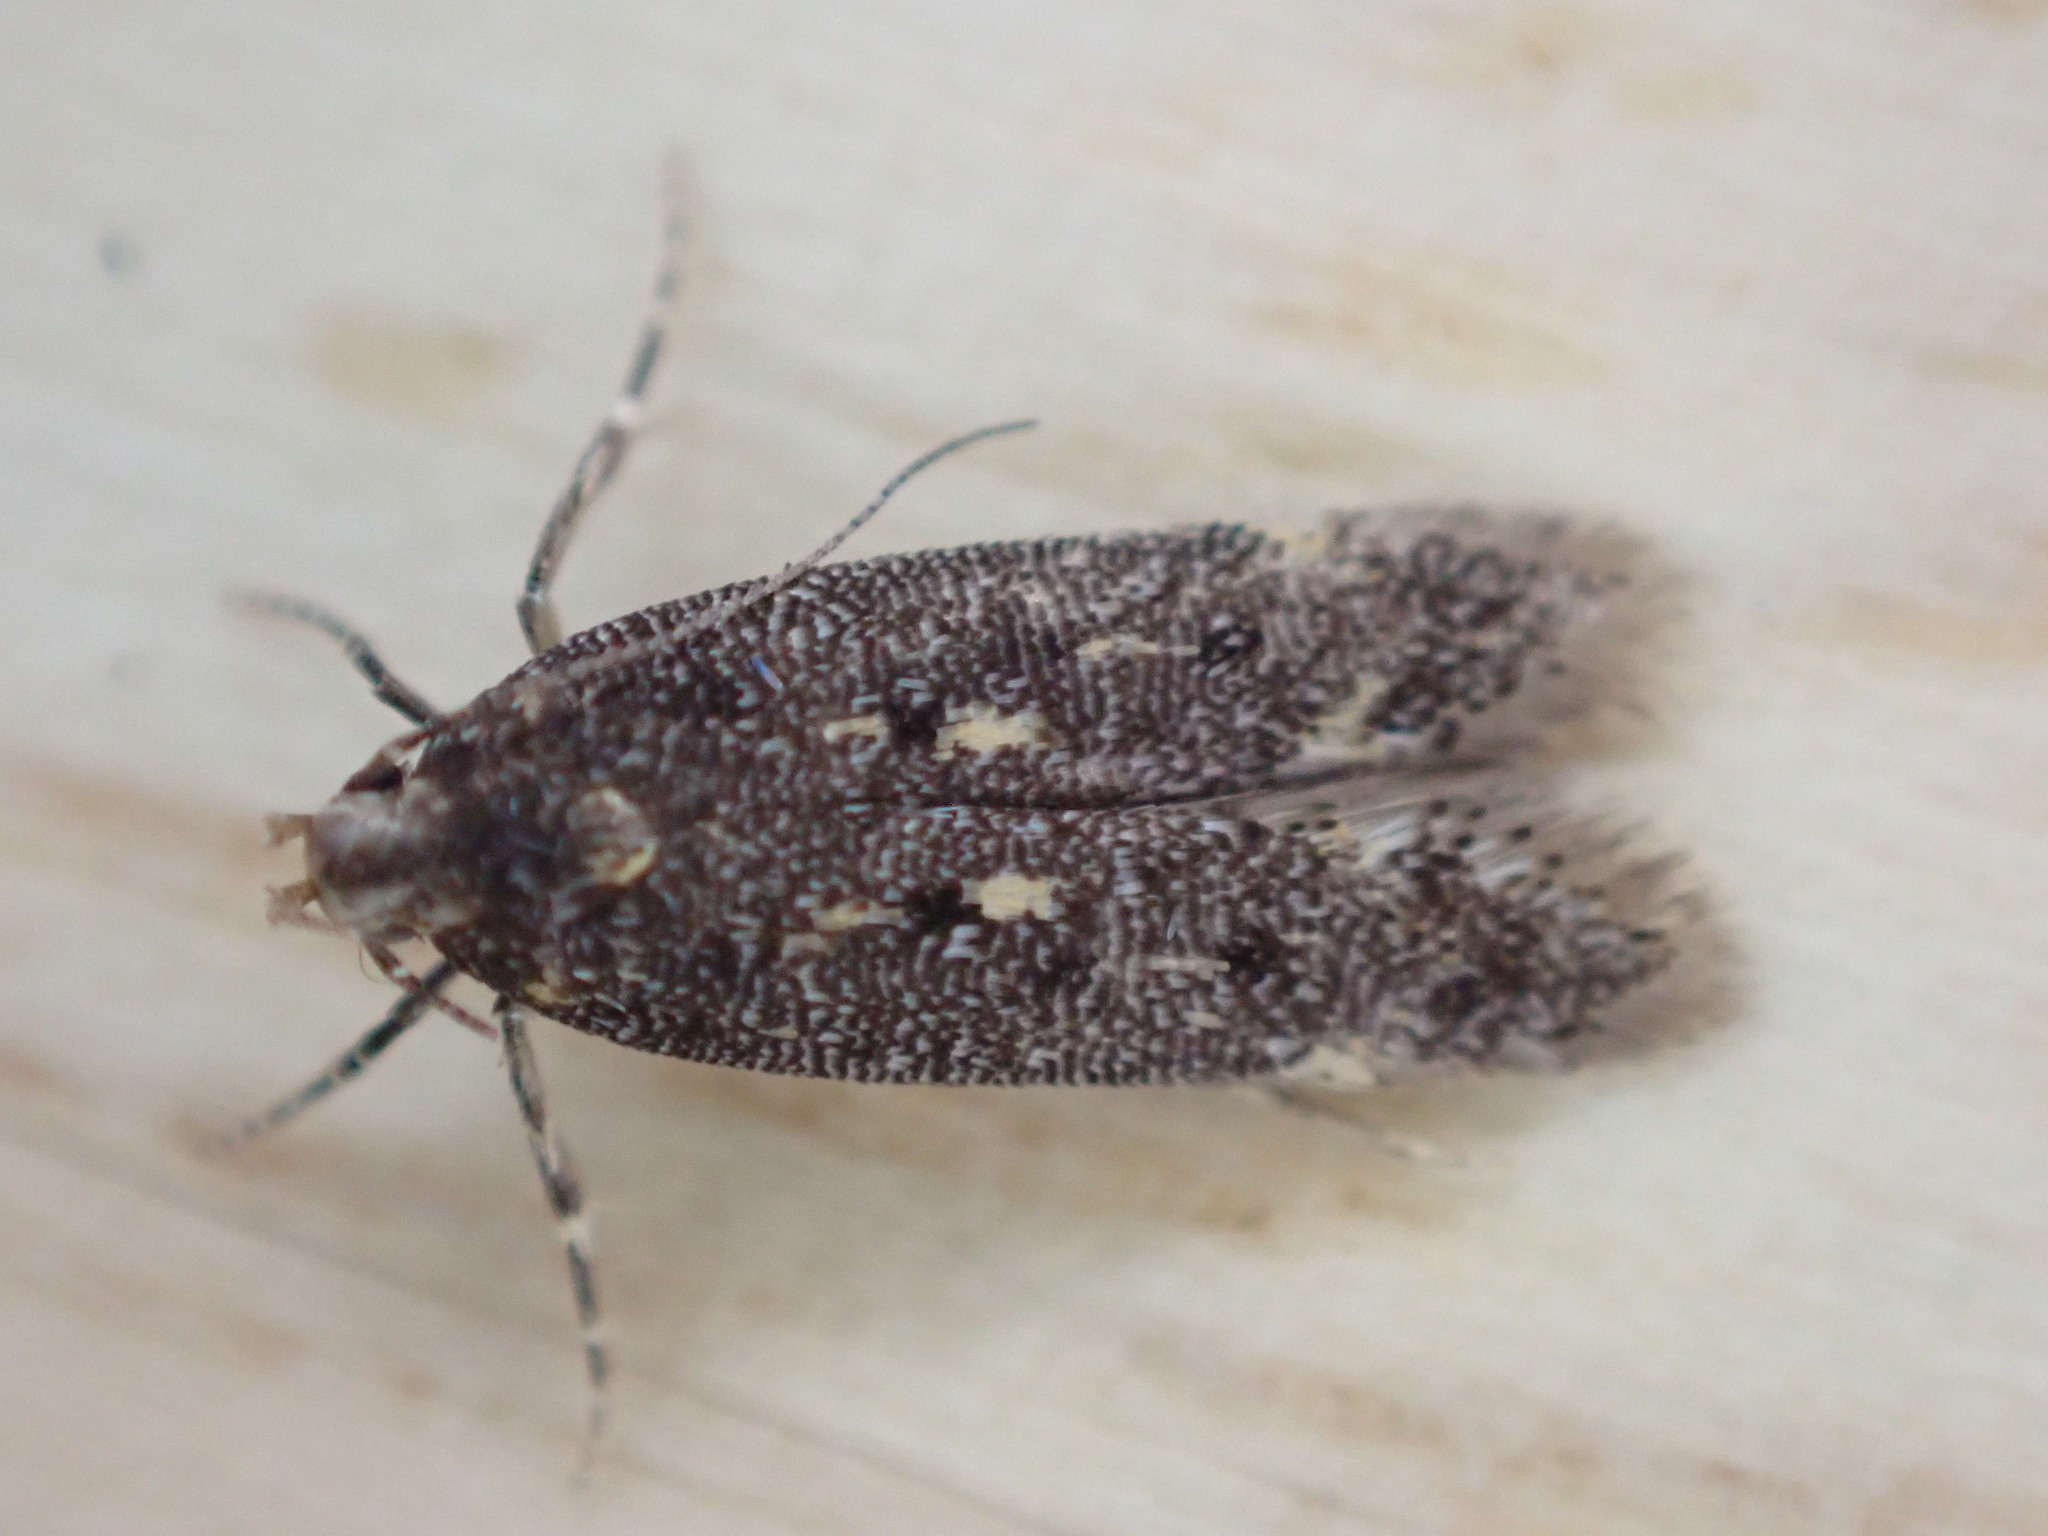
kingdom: Animalia
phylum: Arthropoda
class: Insecta
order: Lepidoptera
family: Gelechiidae
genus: Bryotropha
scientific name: Bryotropha affinis
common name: Dark groundling
